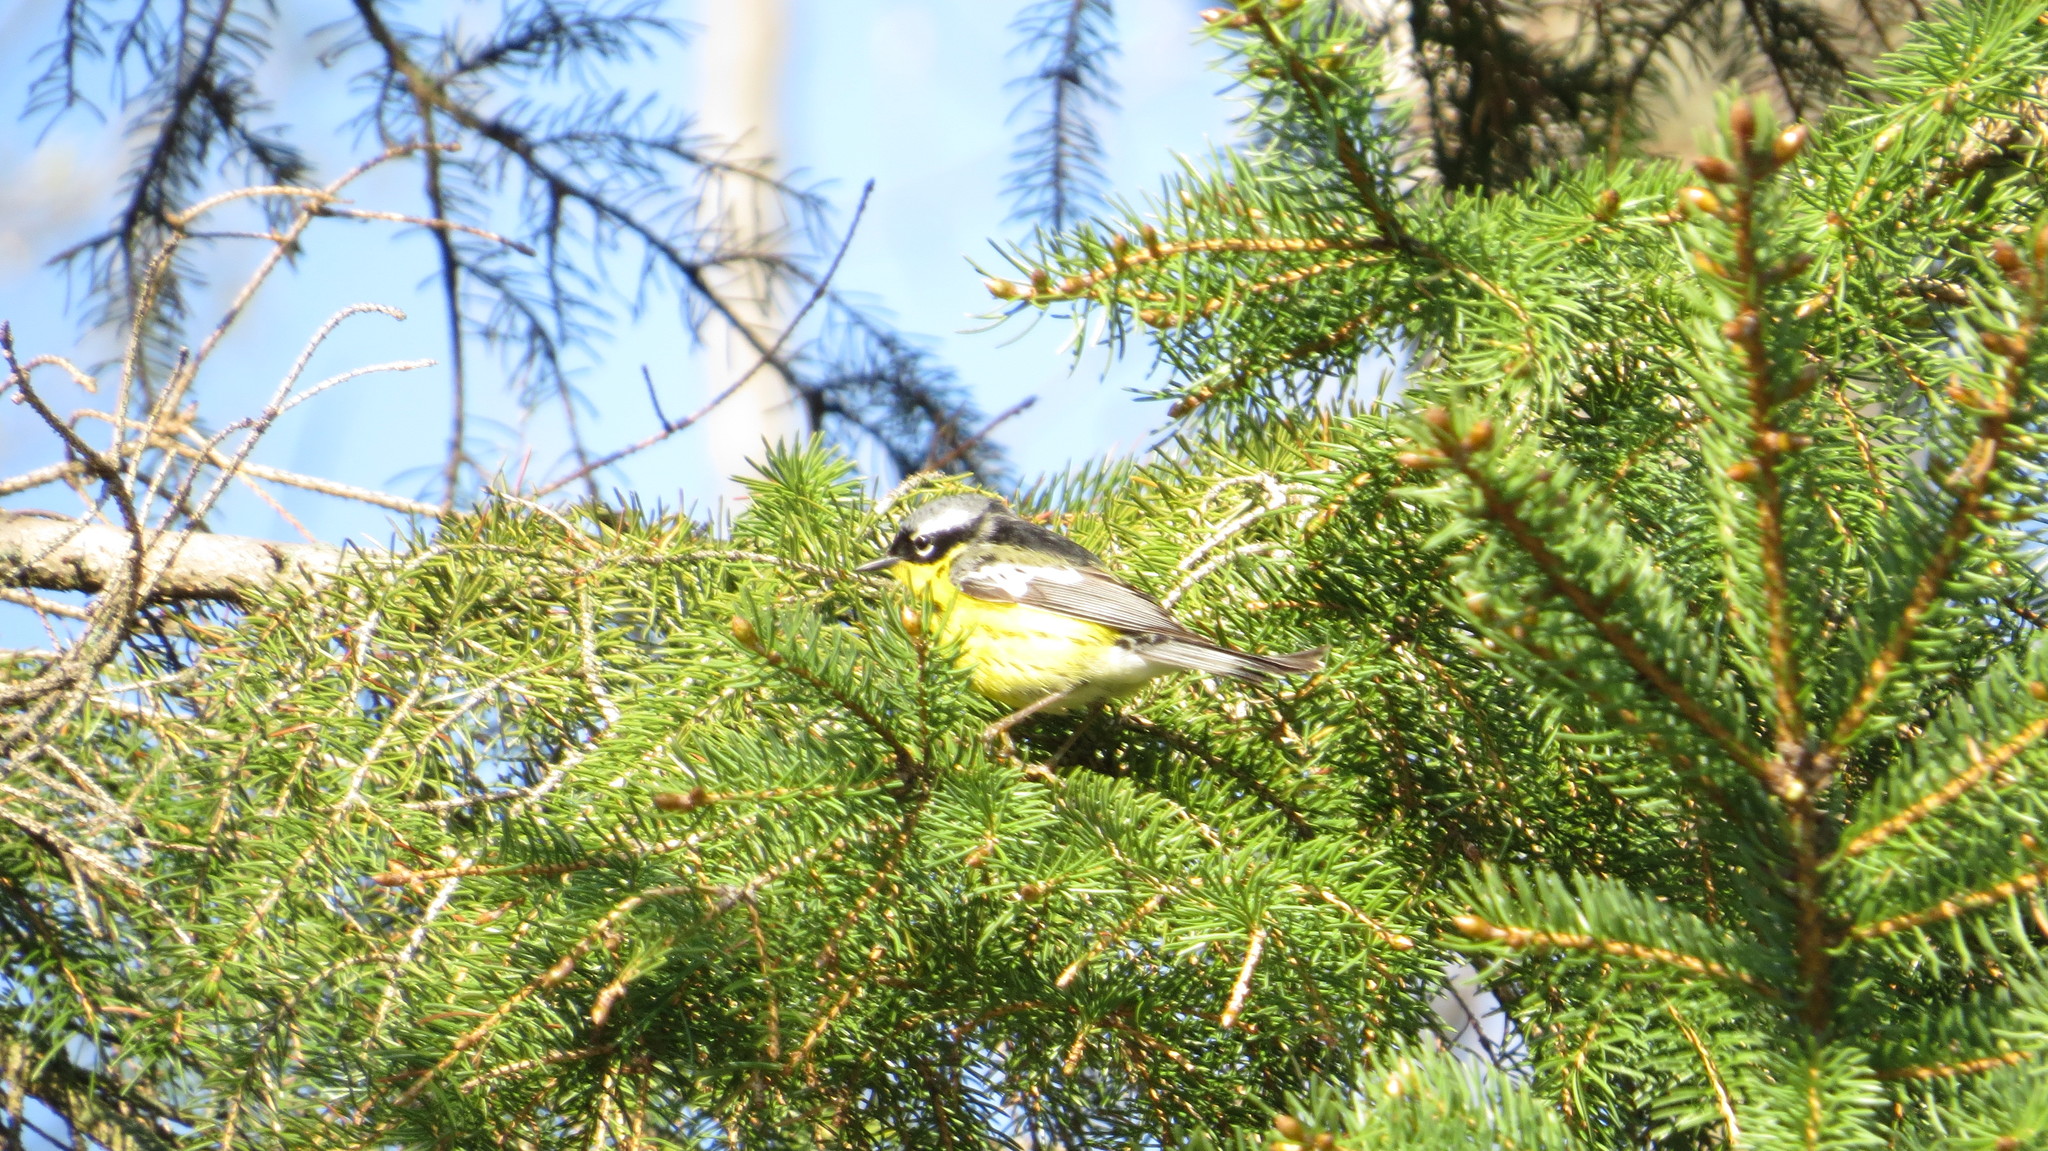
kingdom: Animalia
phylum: Chordata
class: Aves
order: Passeriformes
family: Parulidae
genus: Setophaga
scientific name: Setophaga magnolia
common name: Magnolia warbler
